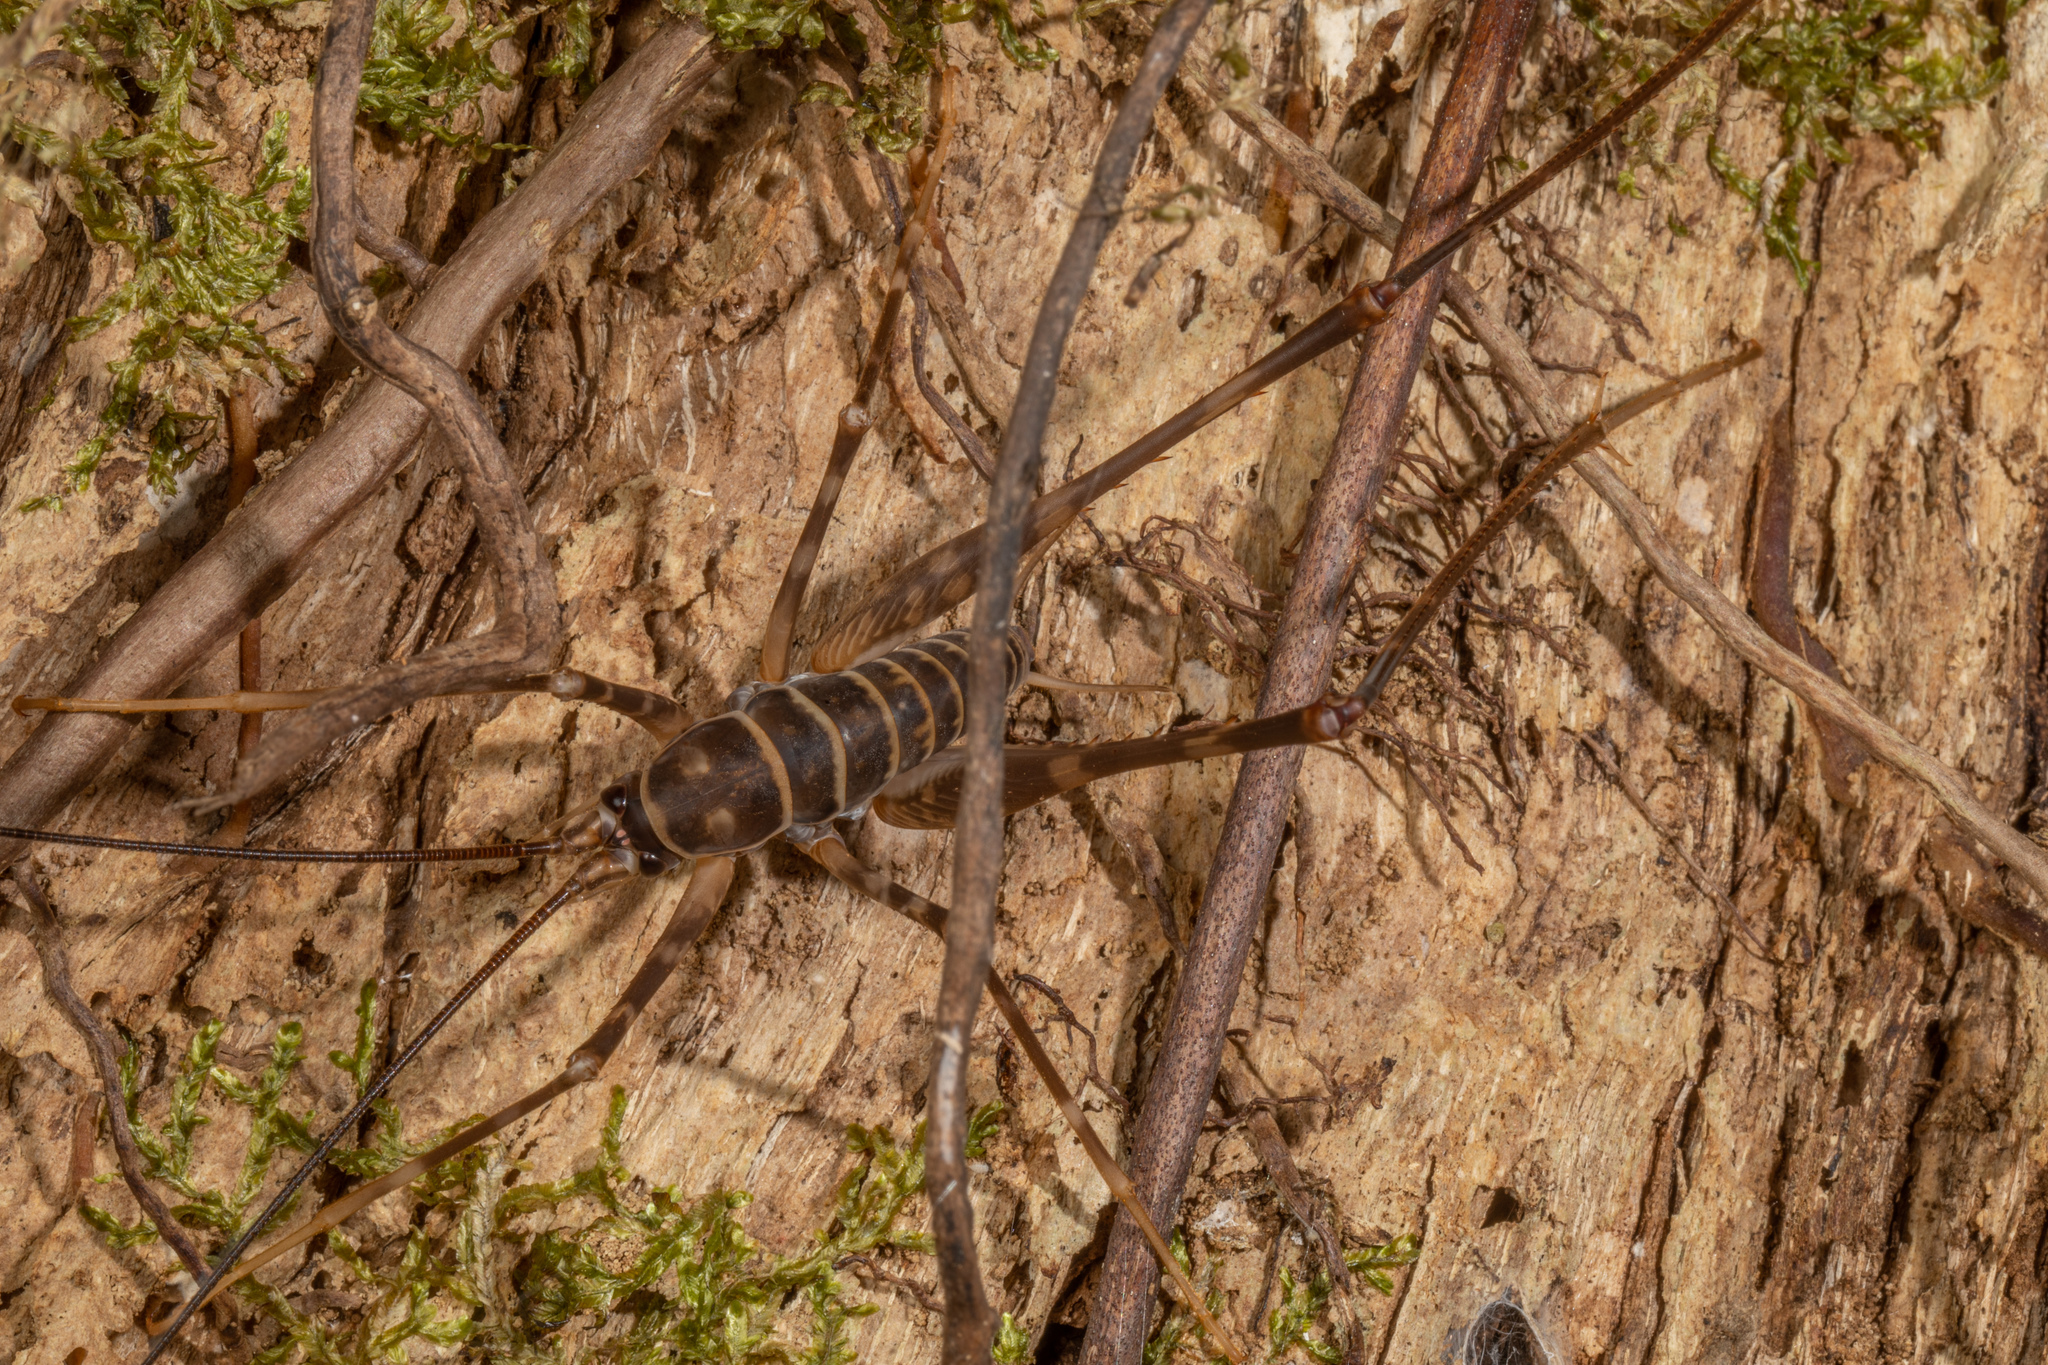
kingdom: Animalia
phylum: Arthropoda
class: Insecta
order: Orthoptera
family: Rhaphidophoridae
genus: Pachyrhamma
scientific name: Pachyrhamma acanthocera
